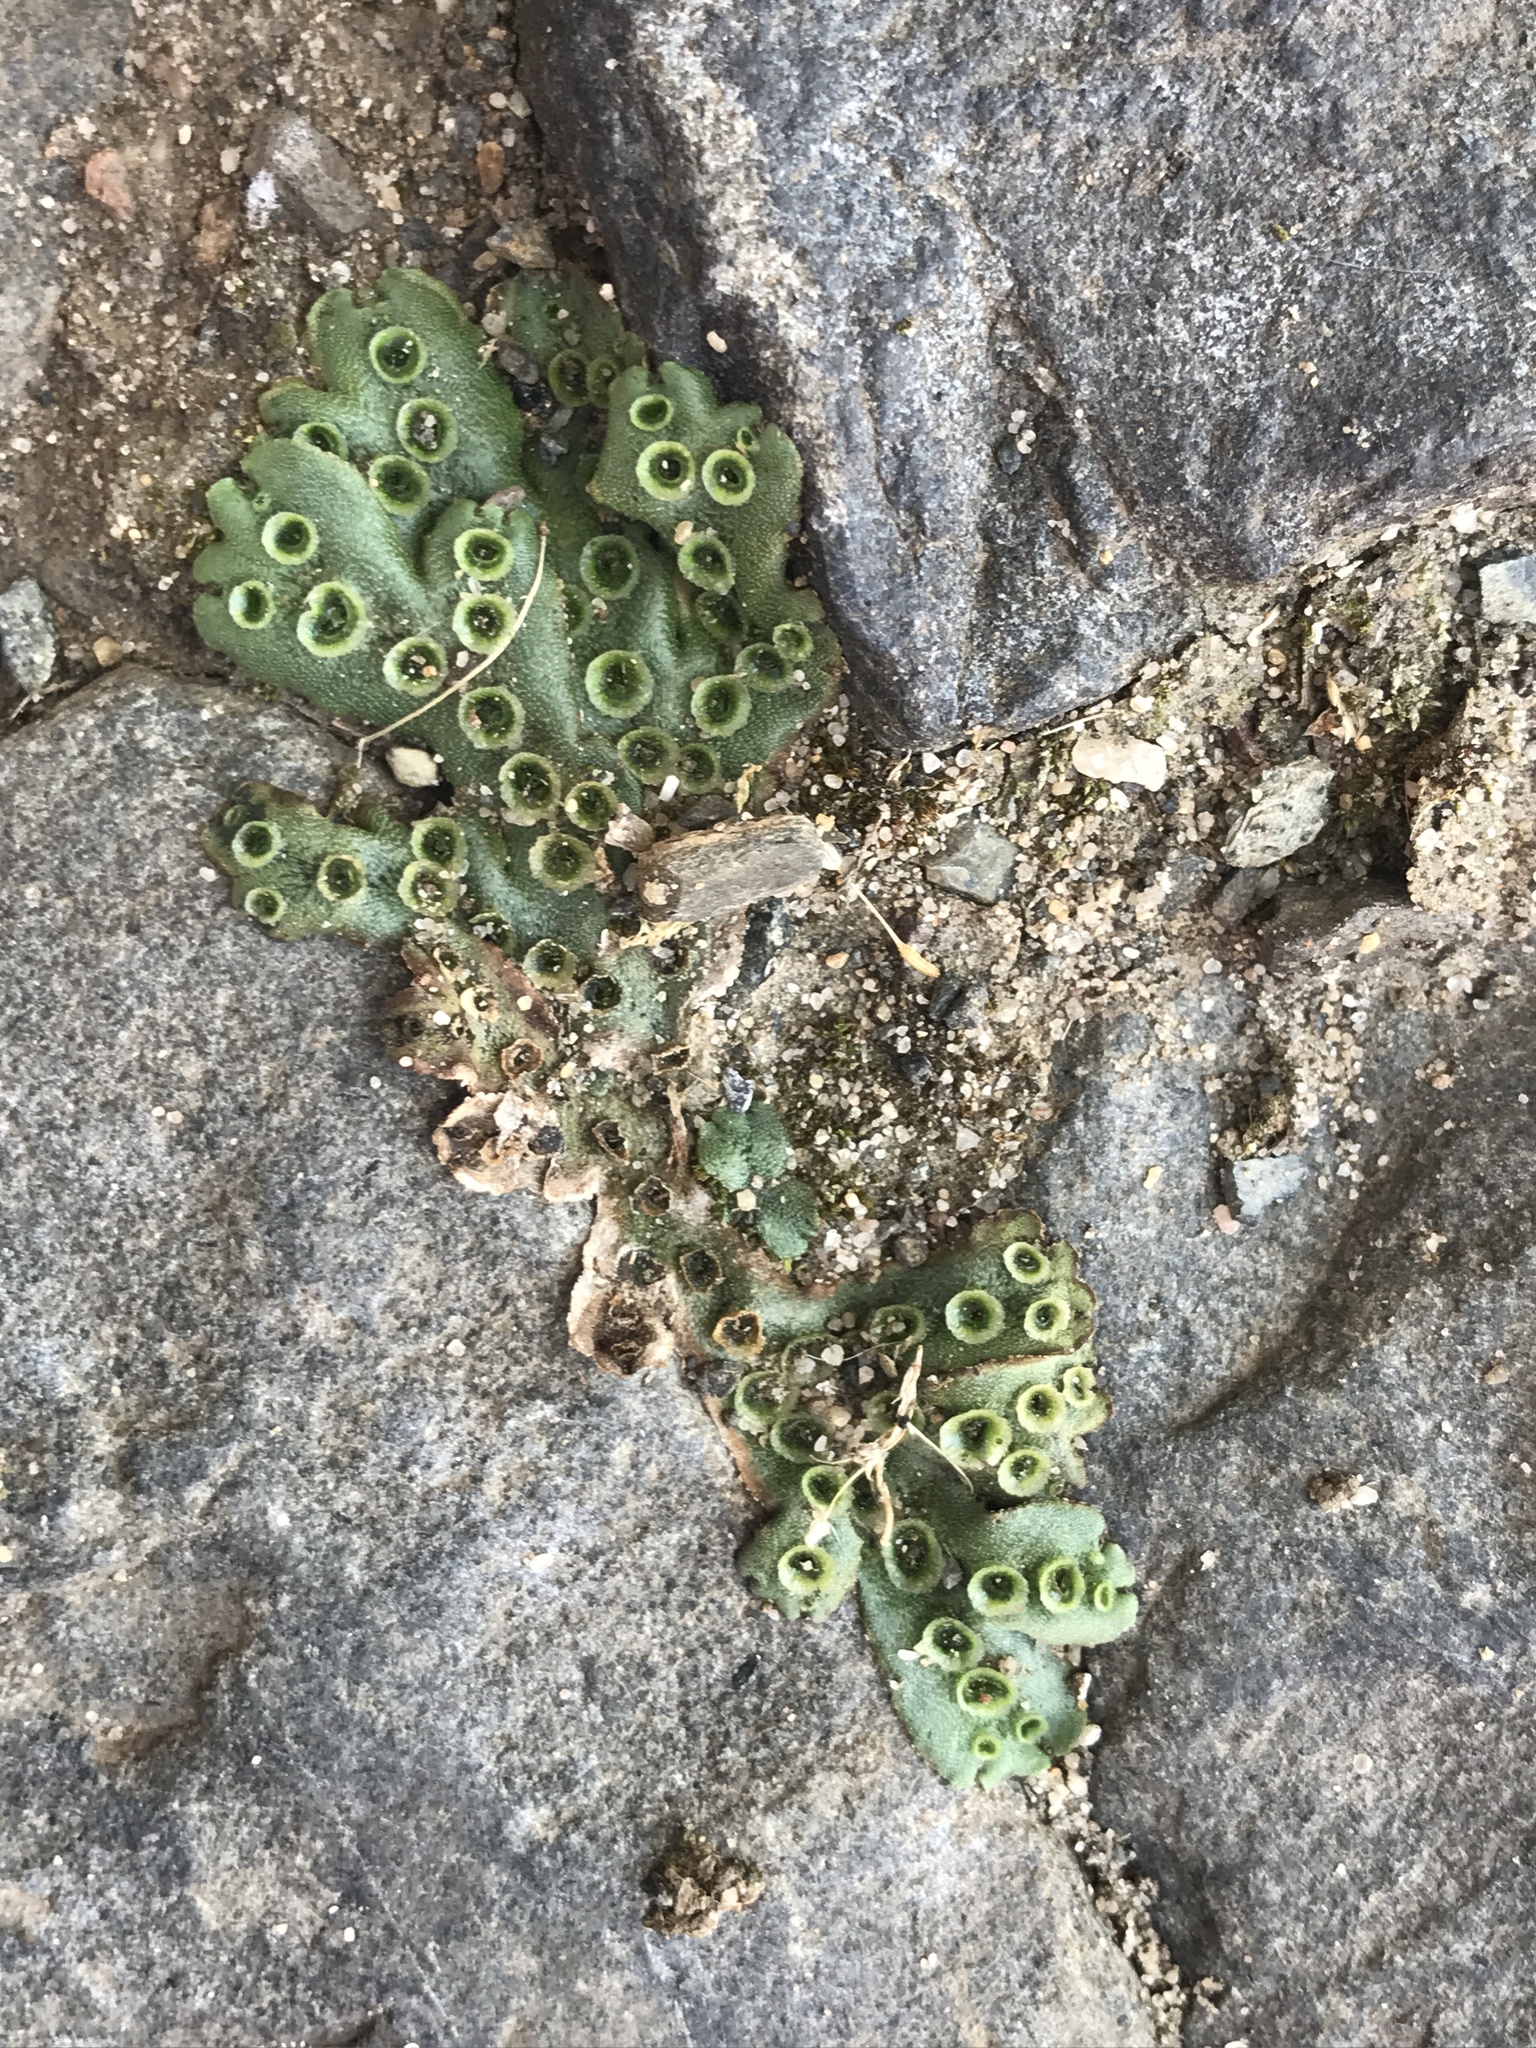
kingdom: Plantae
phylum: Marchantiophyta
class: Marchantiopsida
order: Marchantiales
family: Marchantiaceae
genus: Marchantia
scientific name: Marchantia polymorpha
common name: Common liverwort
